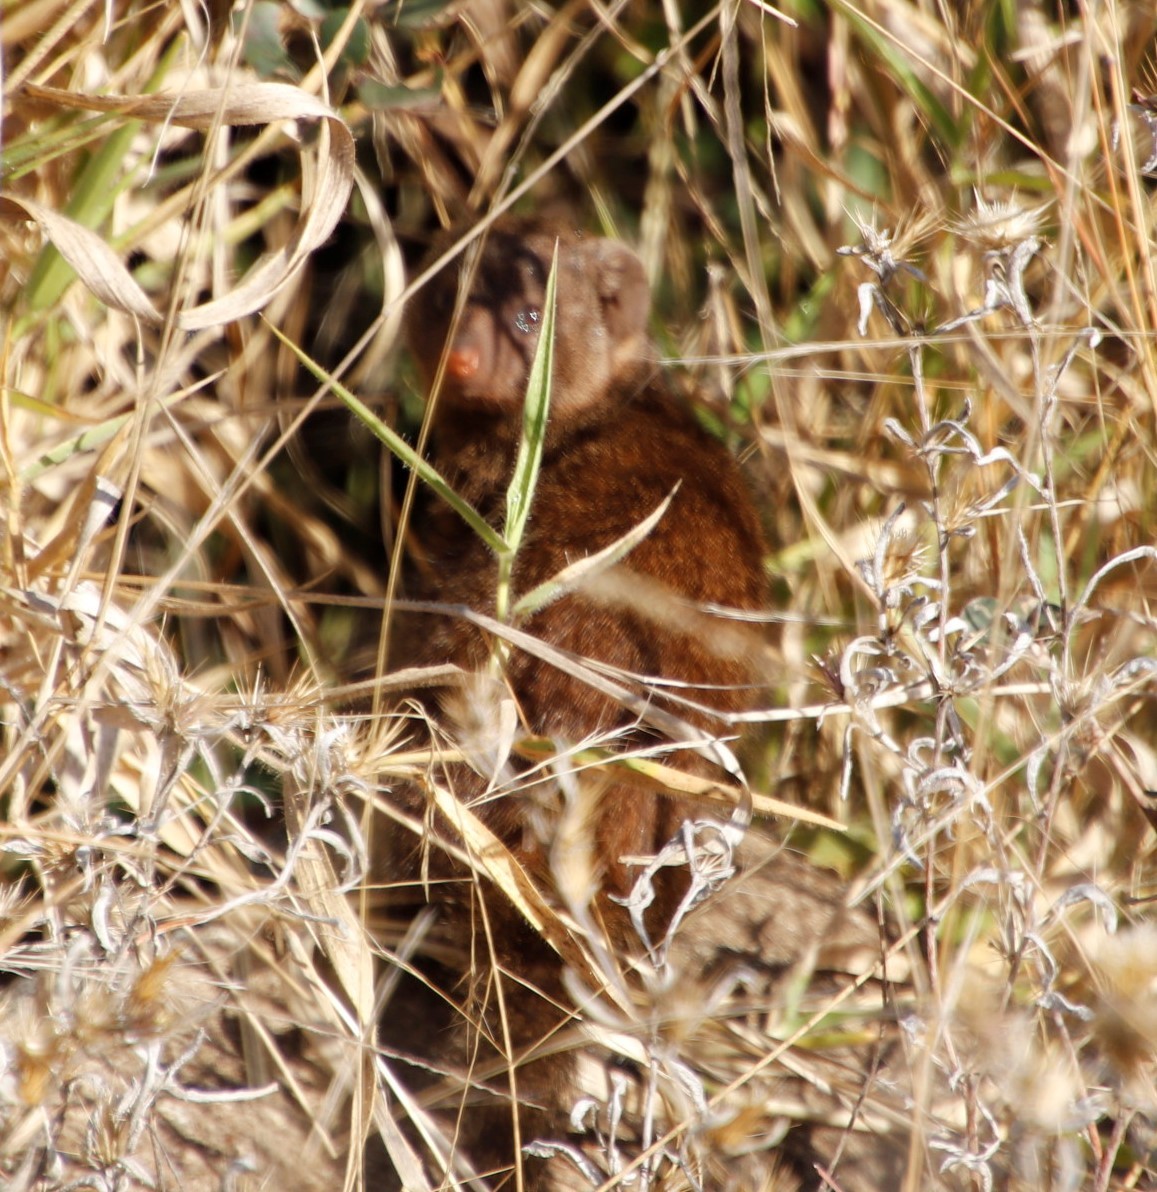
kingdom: Animalia
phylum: Chordata
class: Mammalia
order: Carnivora
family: Herpestidae
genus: Helogale
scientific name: Helogale parvula
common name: Common dwarf mongoose
